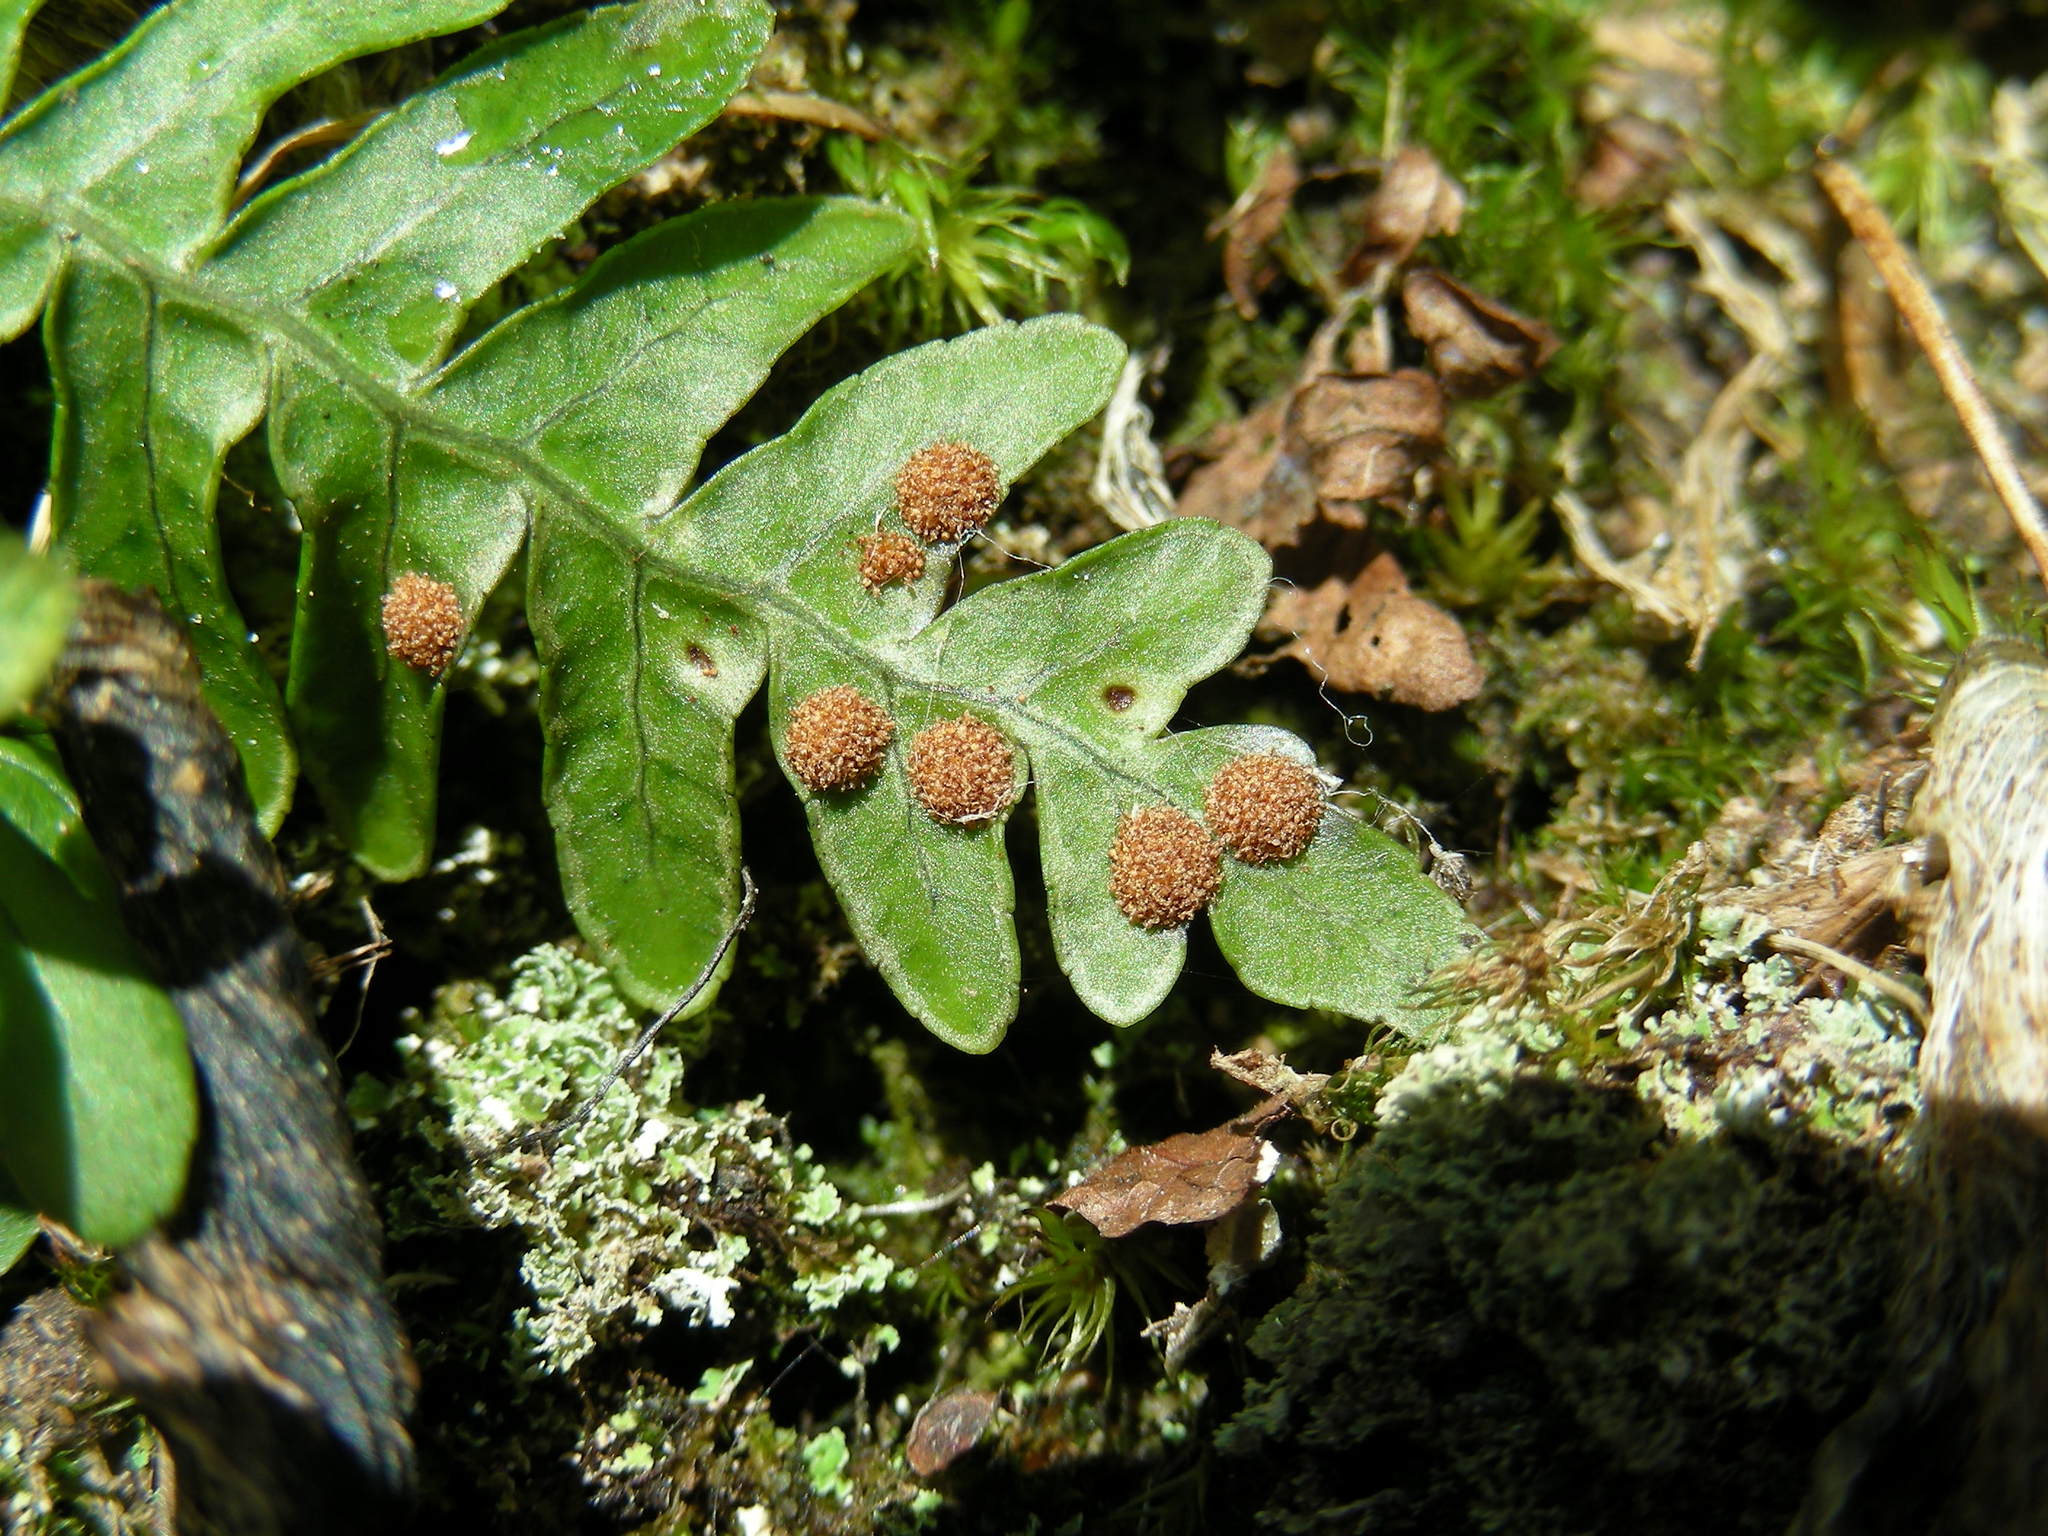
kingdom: Plantae
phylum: Tracheophyta
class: Polypodiopsida
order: Polypodiales
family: Polypodiaceae
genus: Polypodium
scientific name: Polypodium virginianum
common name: American wall fern
